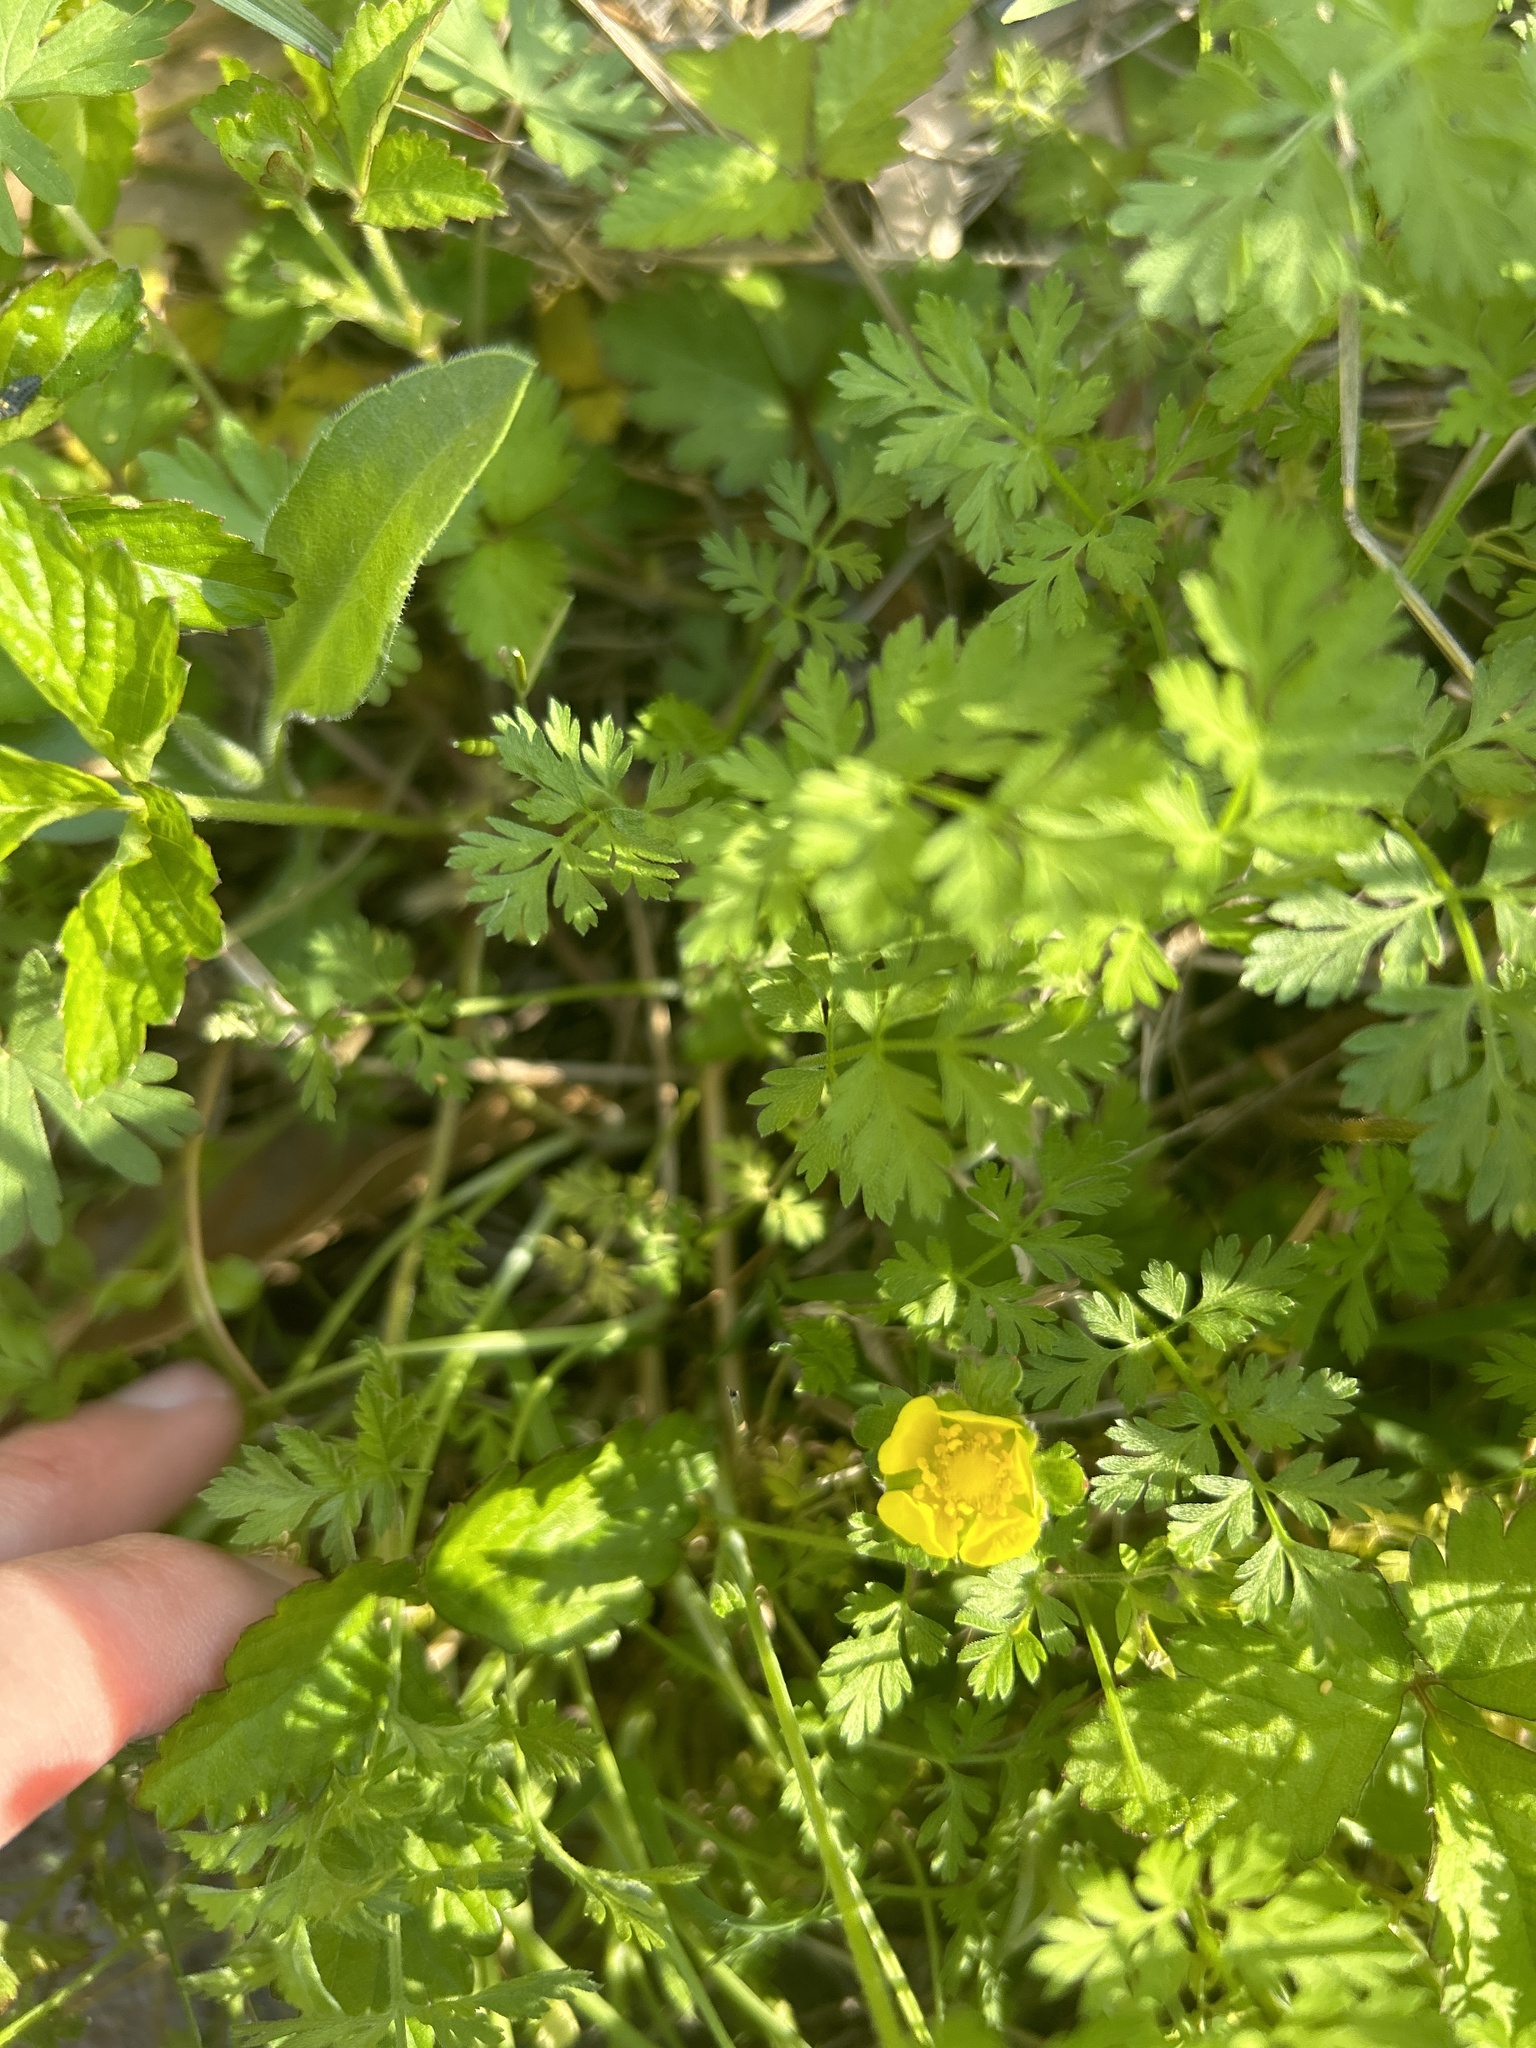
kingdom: Plantae
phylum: Tracheophyta
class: Magnoliopsida
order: Rosales
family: Rosaceae
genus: Potentilla
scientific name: Potentilla indica
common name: Yellow-flowered strawberry
